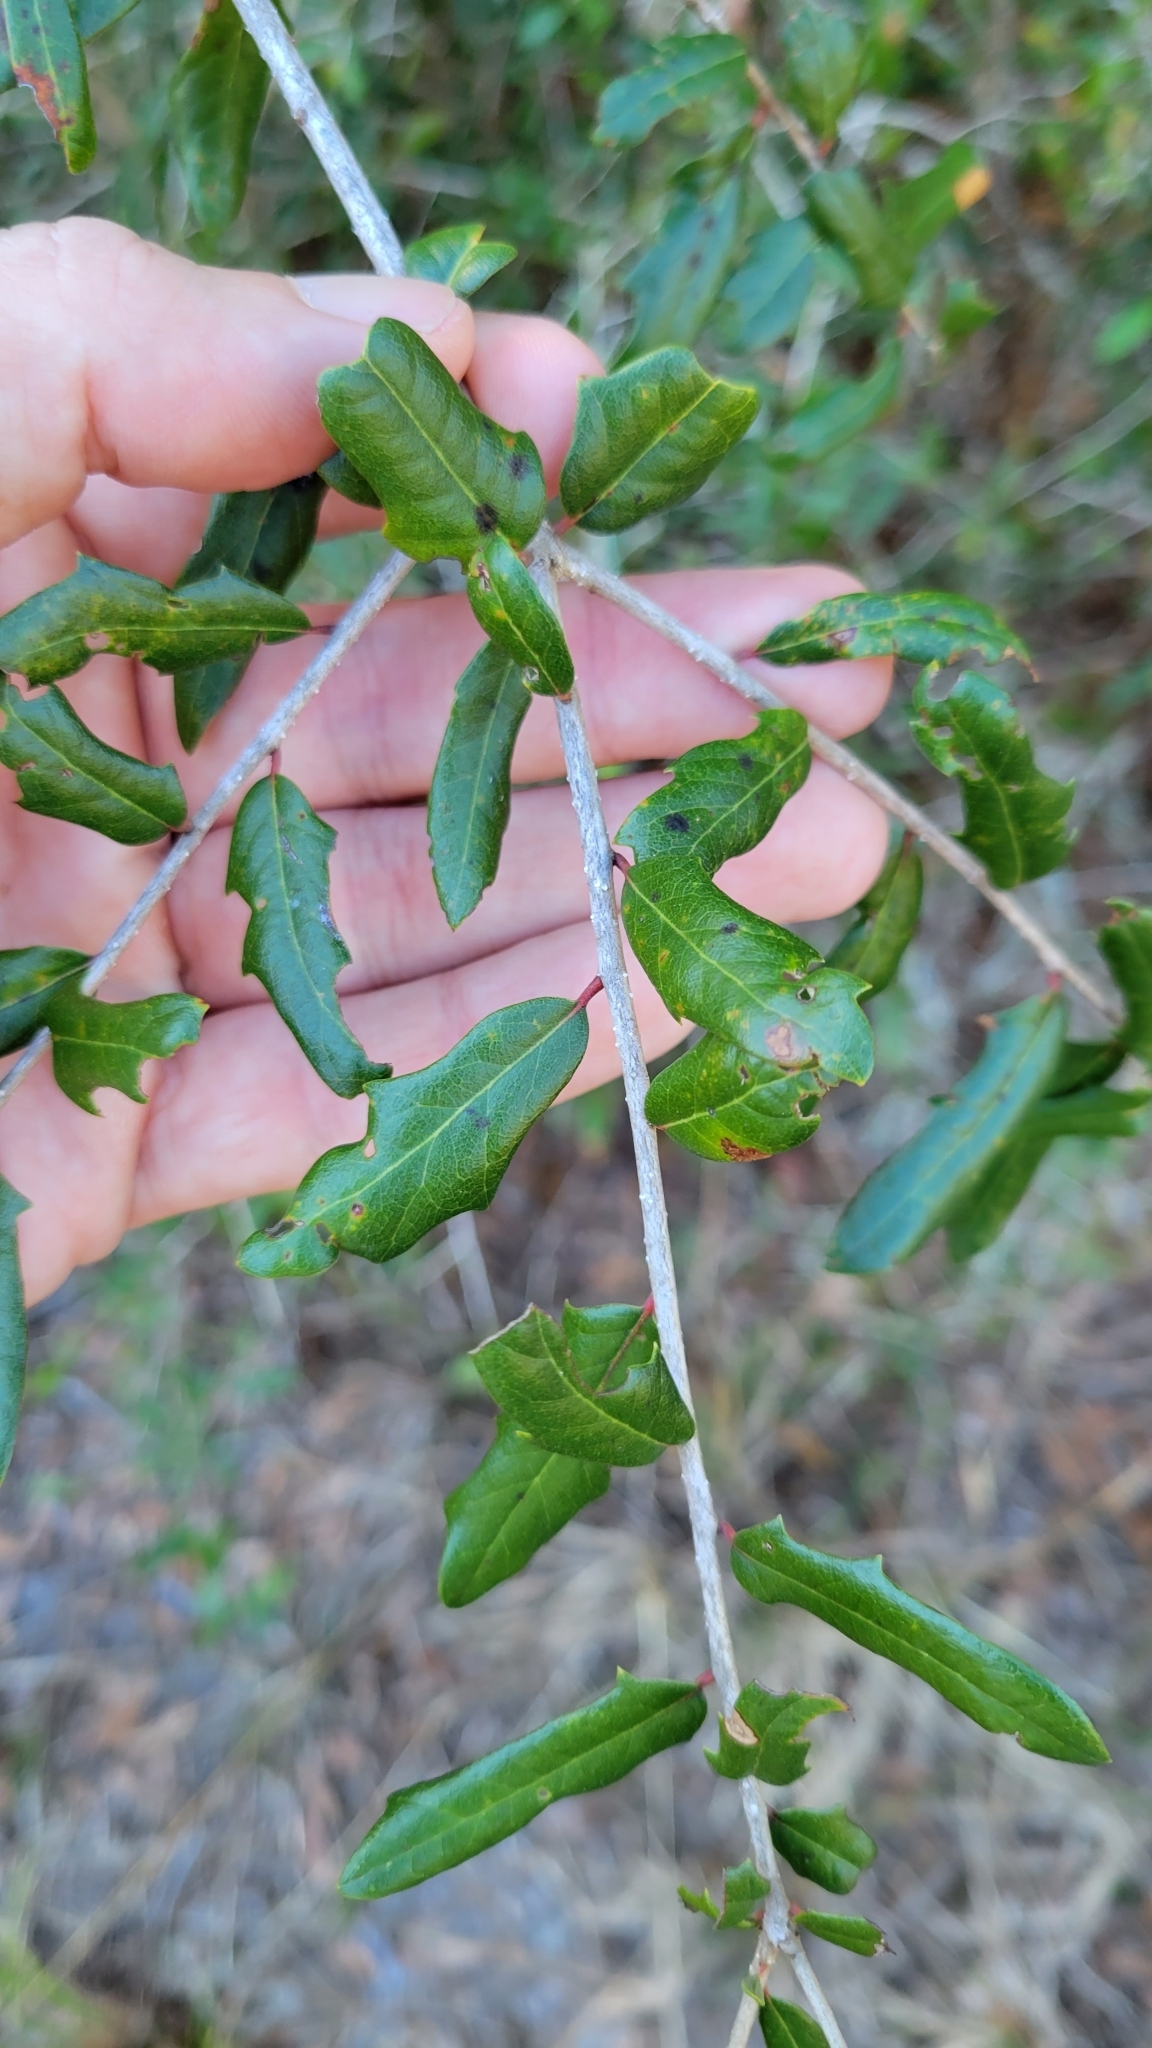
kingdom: Plantae
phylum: Tracheophyta
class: Magnoliopsida
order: Fagales
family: Fagaceae
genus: Quercus
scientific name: Quercus virginiana
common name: Southern live oak
